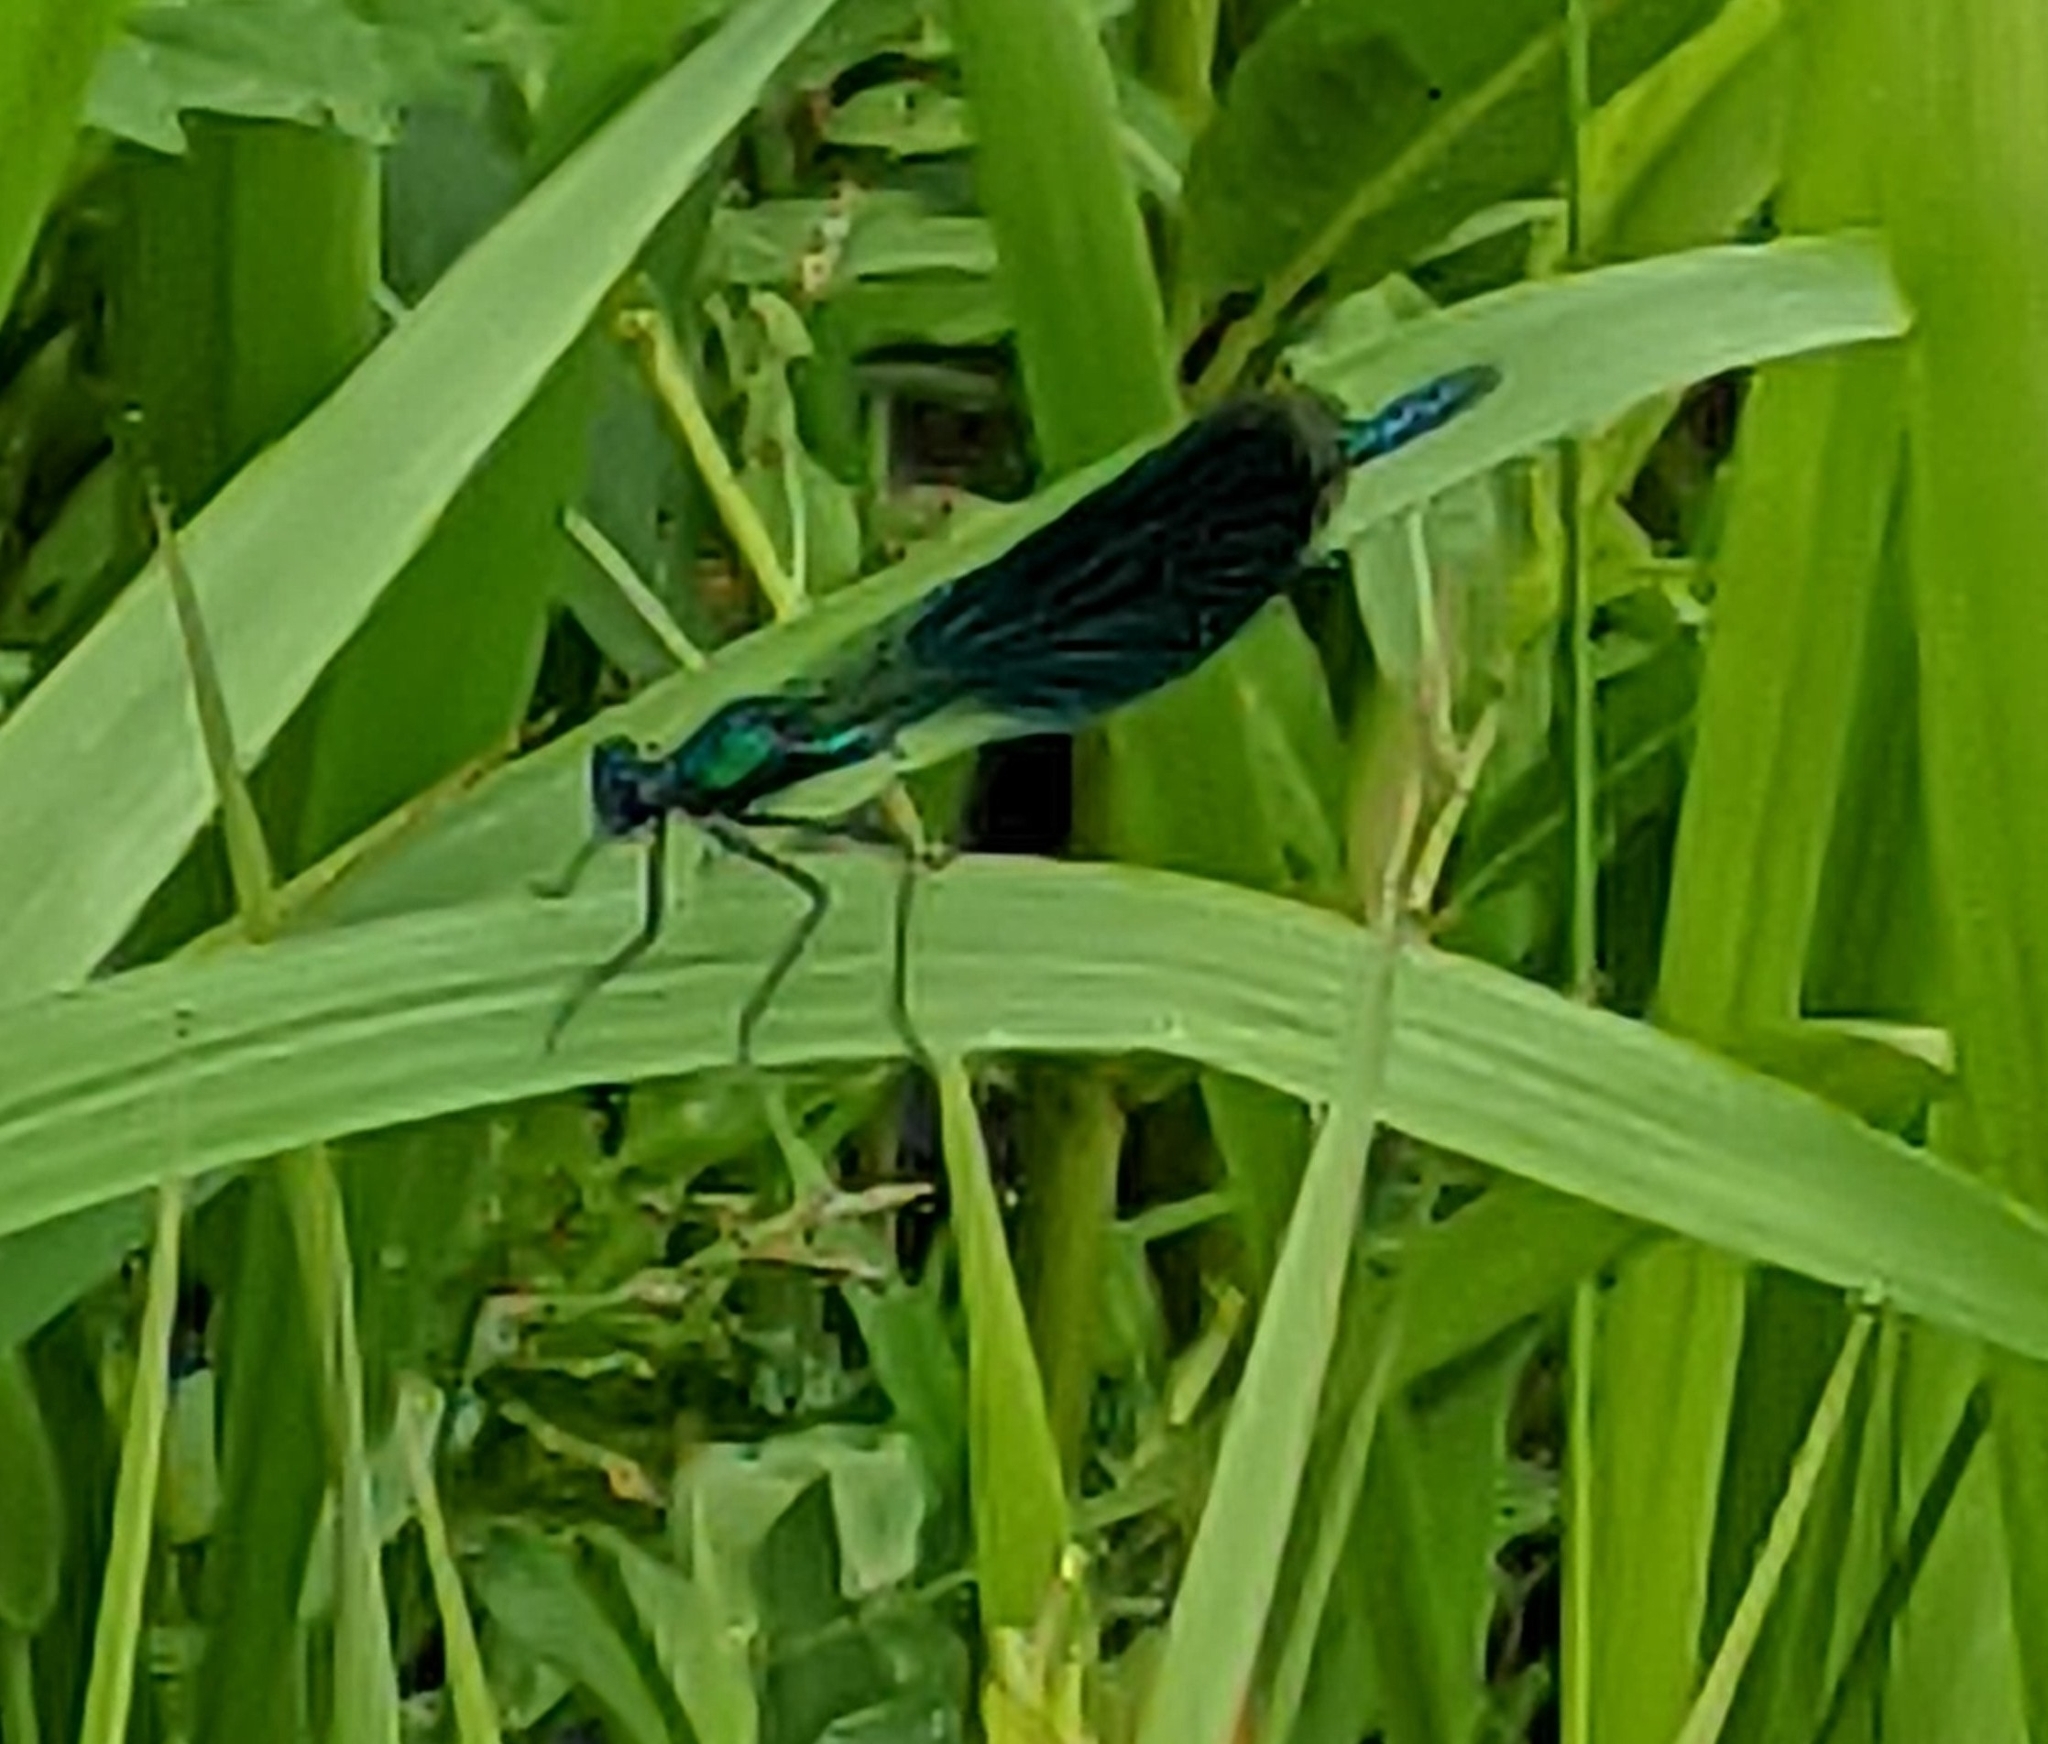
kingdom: Animalia
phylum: Arthropoda
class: Insecta
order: Odonata
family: Calopterygidae
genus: Calopteryx
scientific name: Calopteryx splendens
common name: Banded demoiselle
